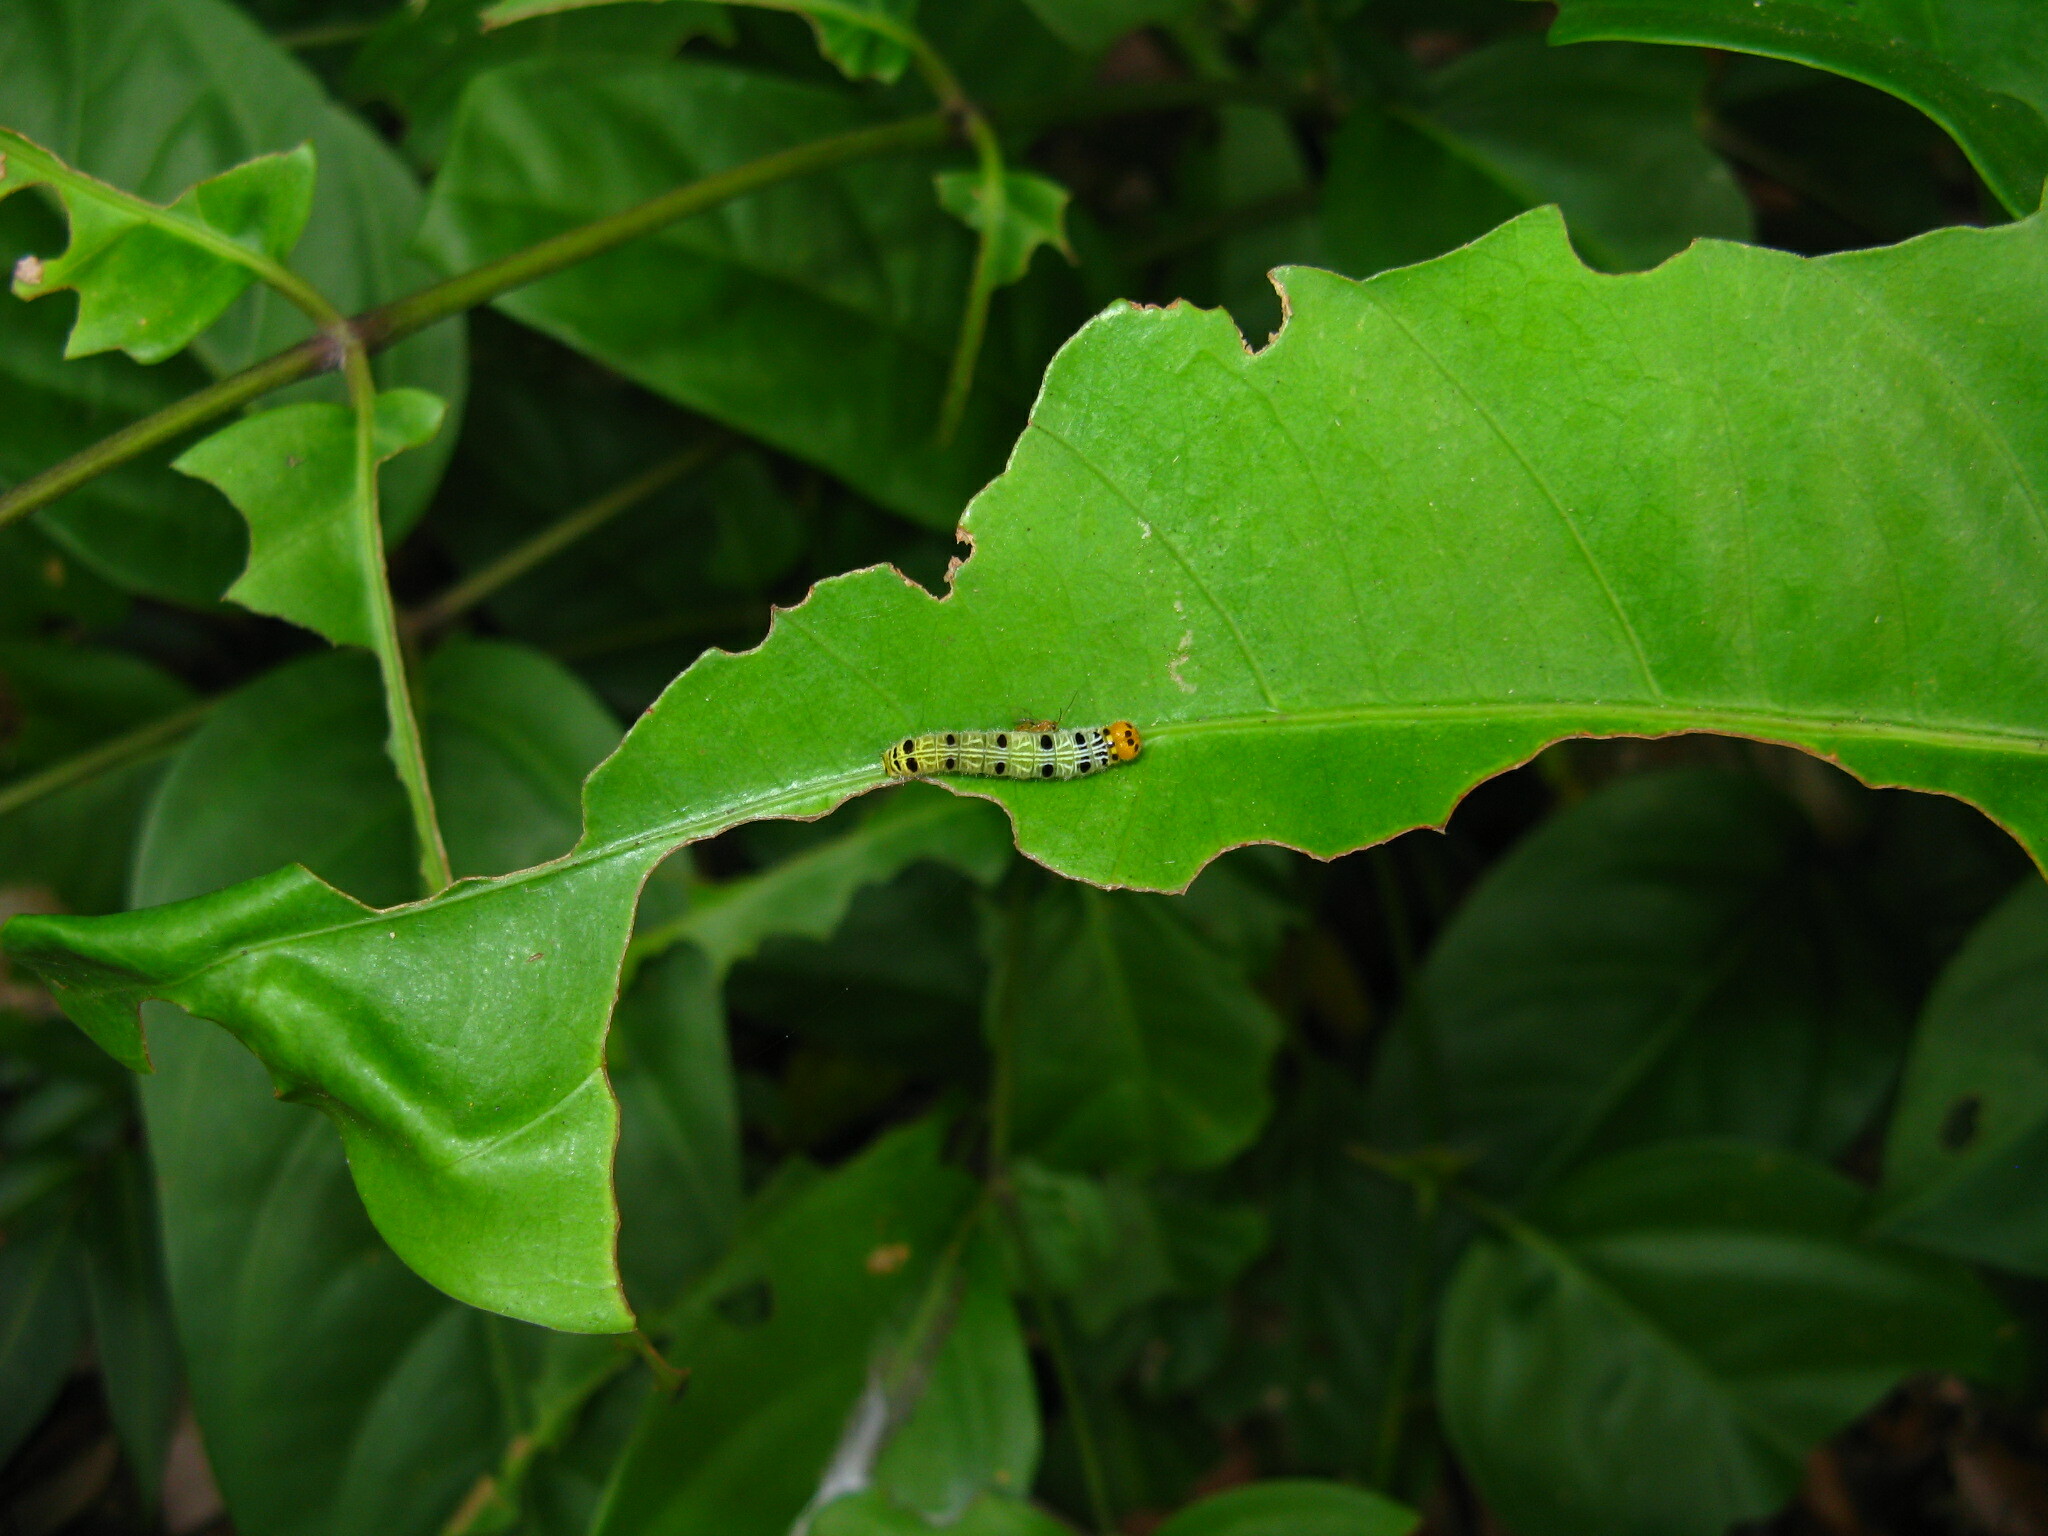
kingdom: Animalia
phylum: Arthropoda
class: Insecta
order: Lepidoptera
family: Hesperiidae
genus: Bibasis
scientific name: Bibasis harisa
